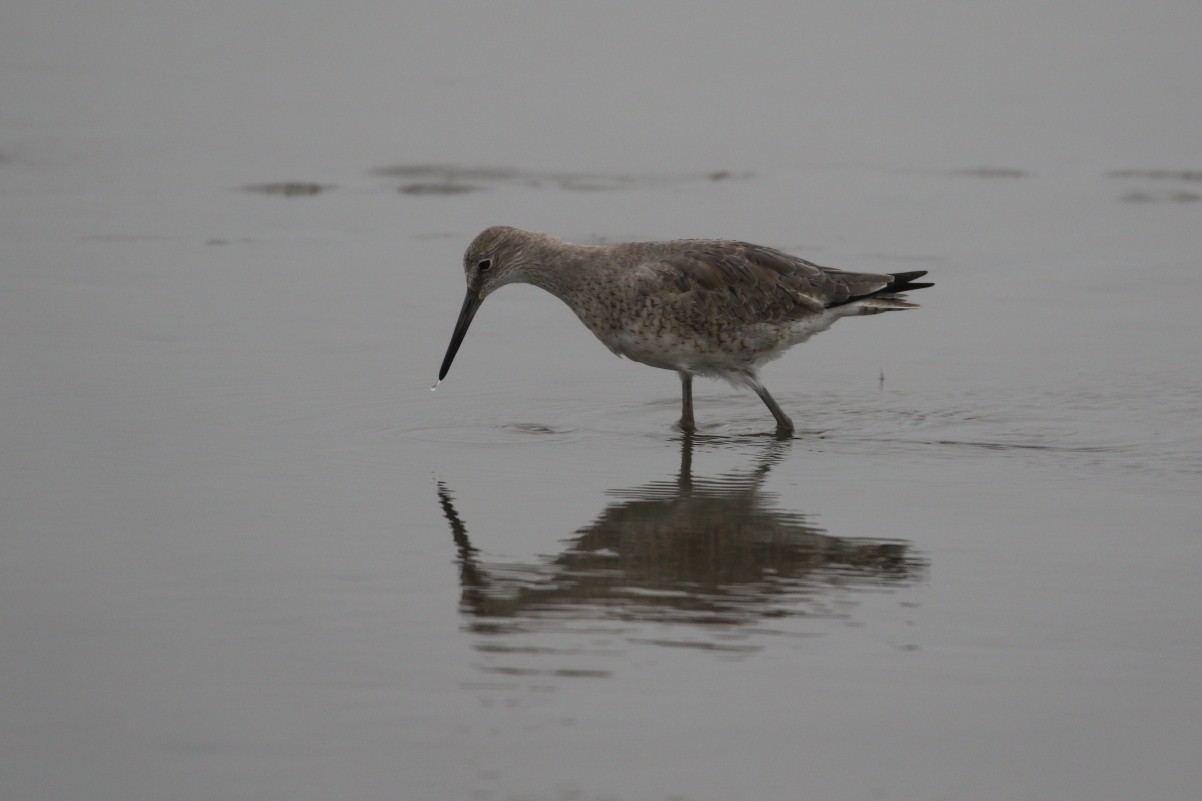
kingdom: Animalia
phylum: Chordata
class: Aves
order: Charadriiformes
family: Scolopacidae
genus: Tringa
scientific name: Tringa semipalmata
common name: Willet
